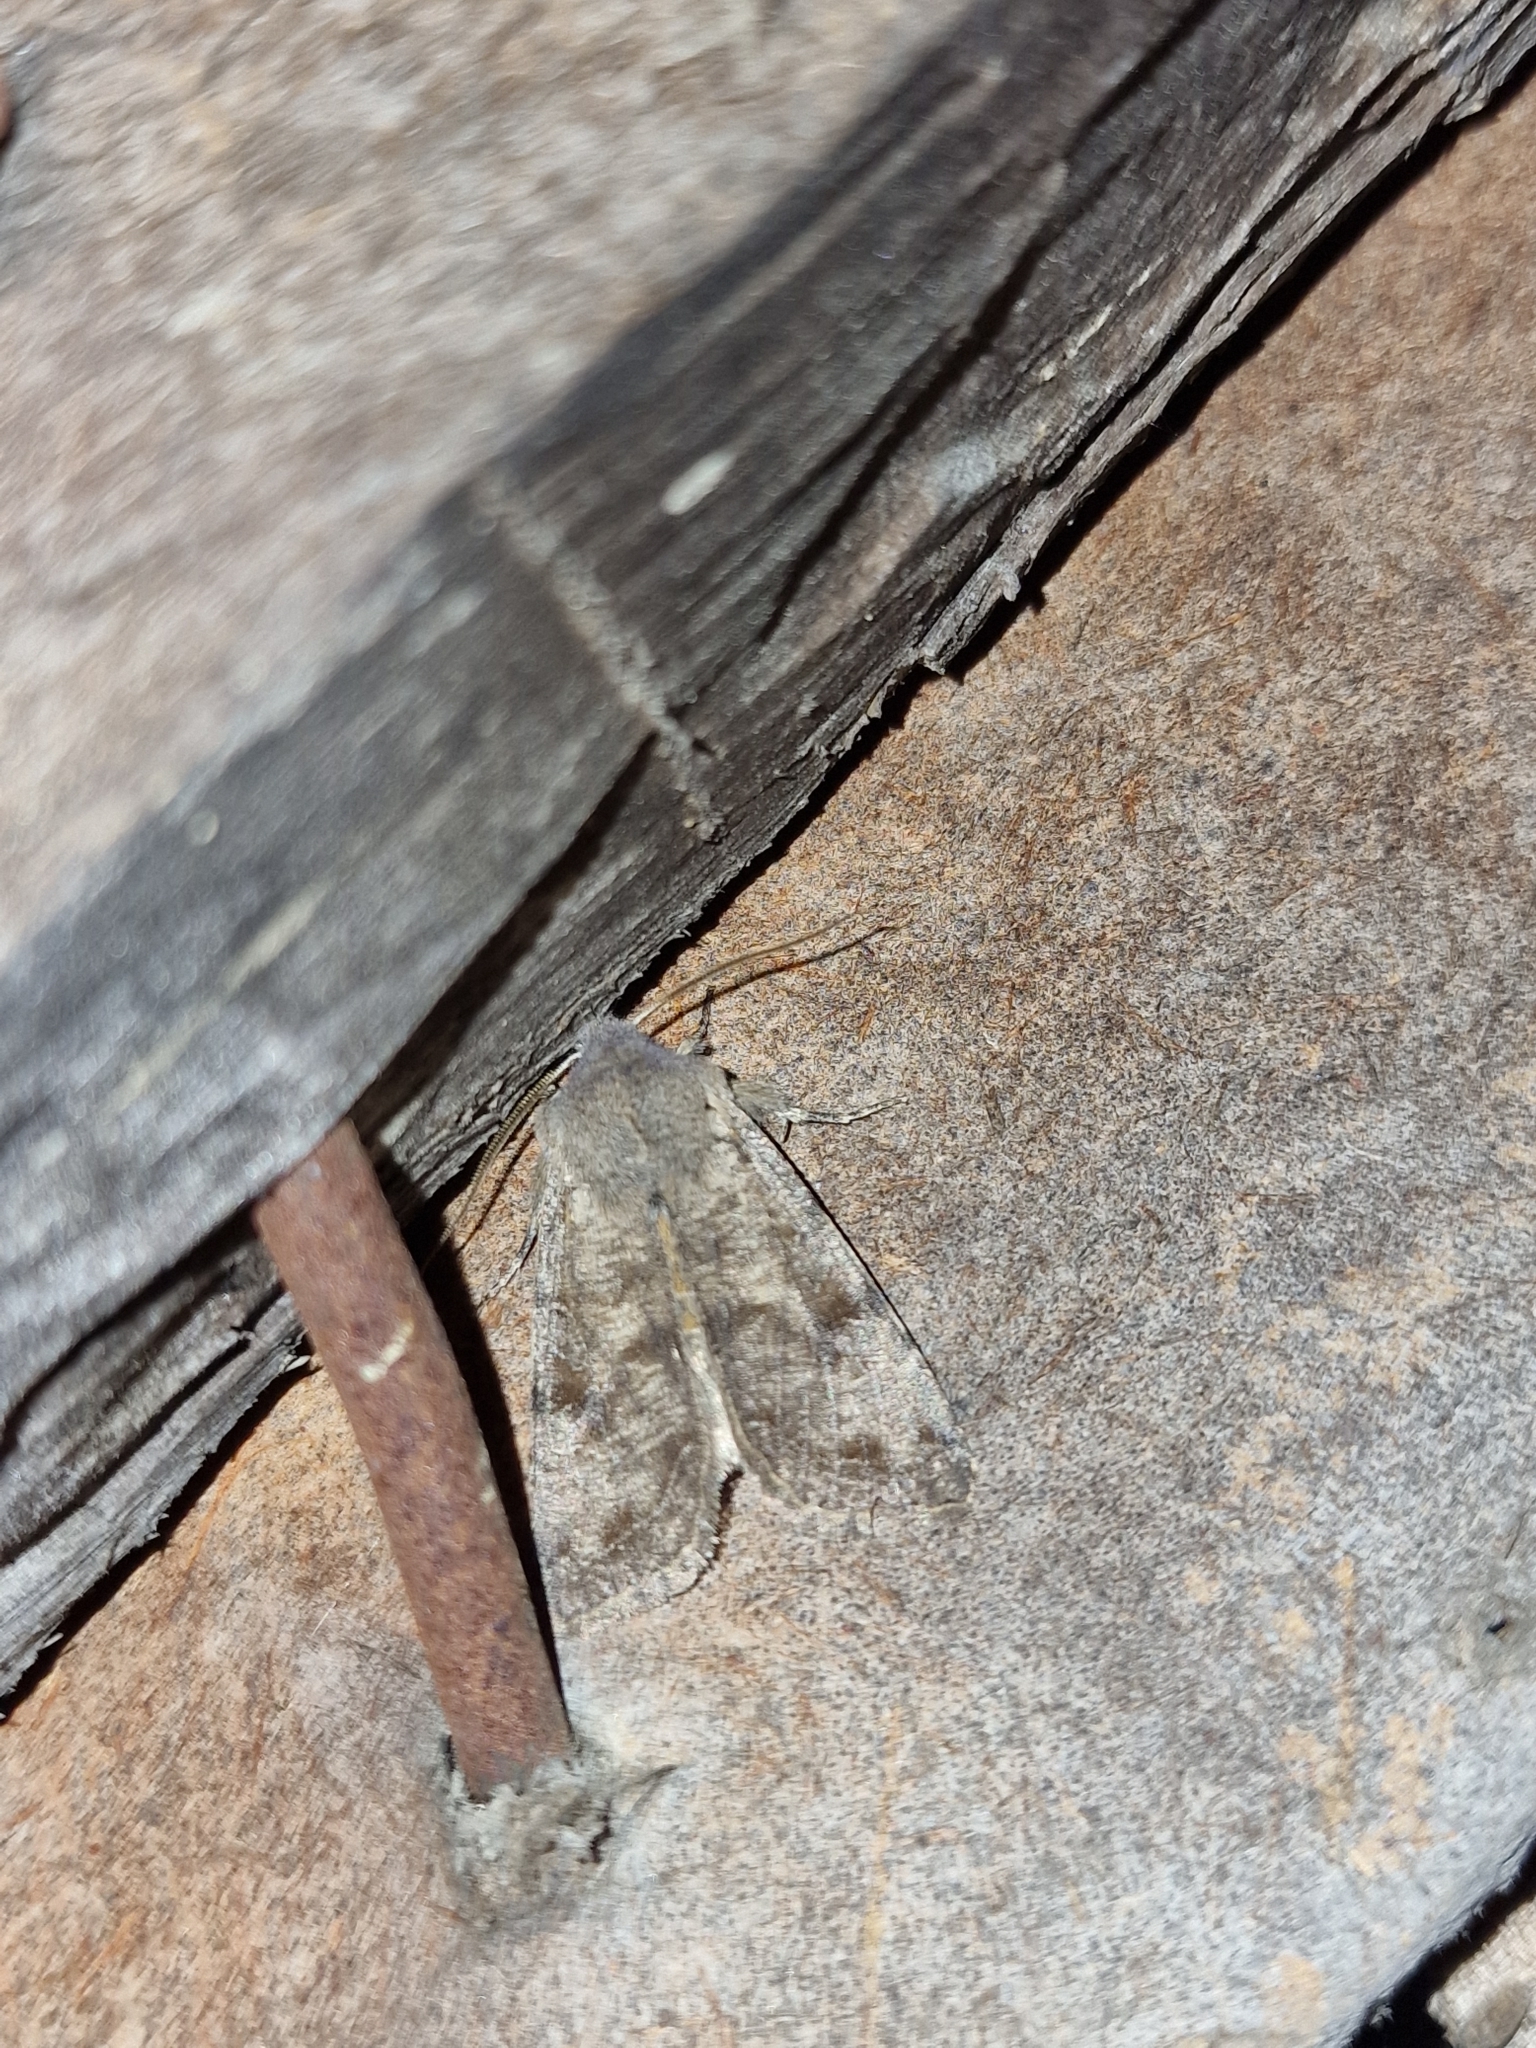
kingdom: Animalia
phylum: Arthropoda
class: Insecta
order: Lepidoptera
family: Noctuidae
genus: Orthosia
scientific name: Orthosia incerta
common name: Clouded drab
